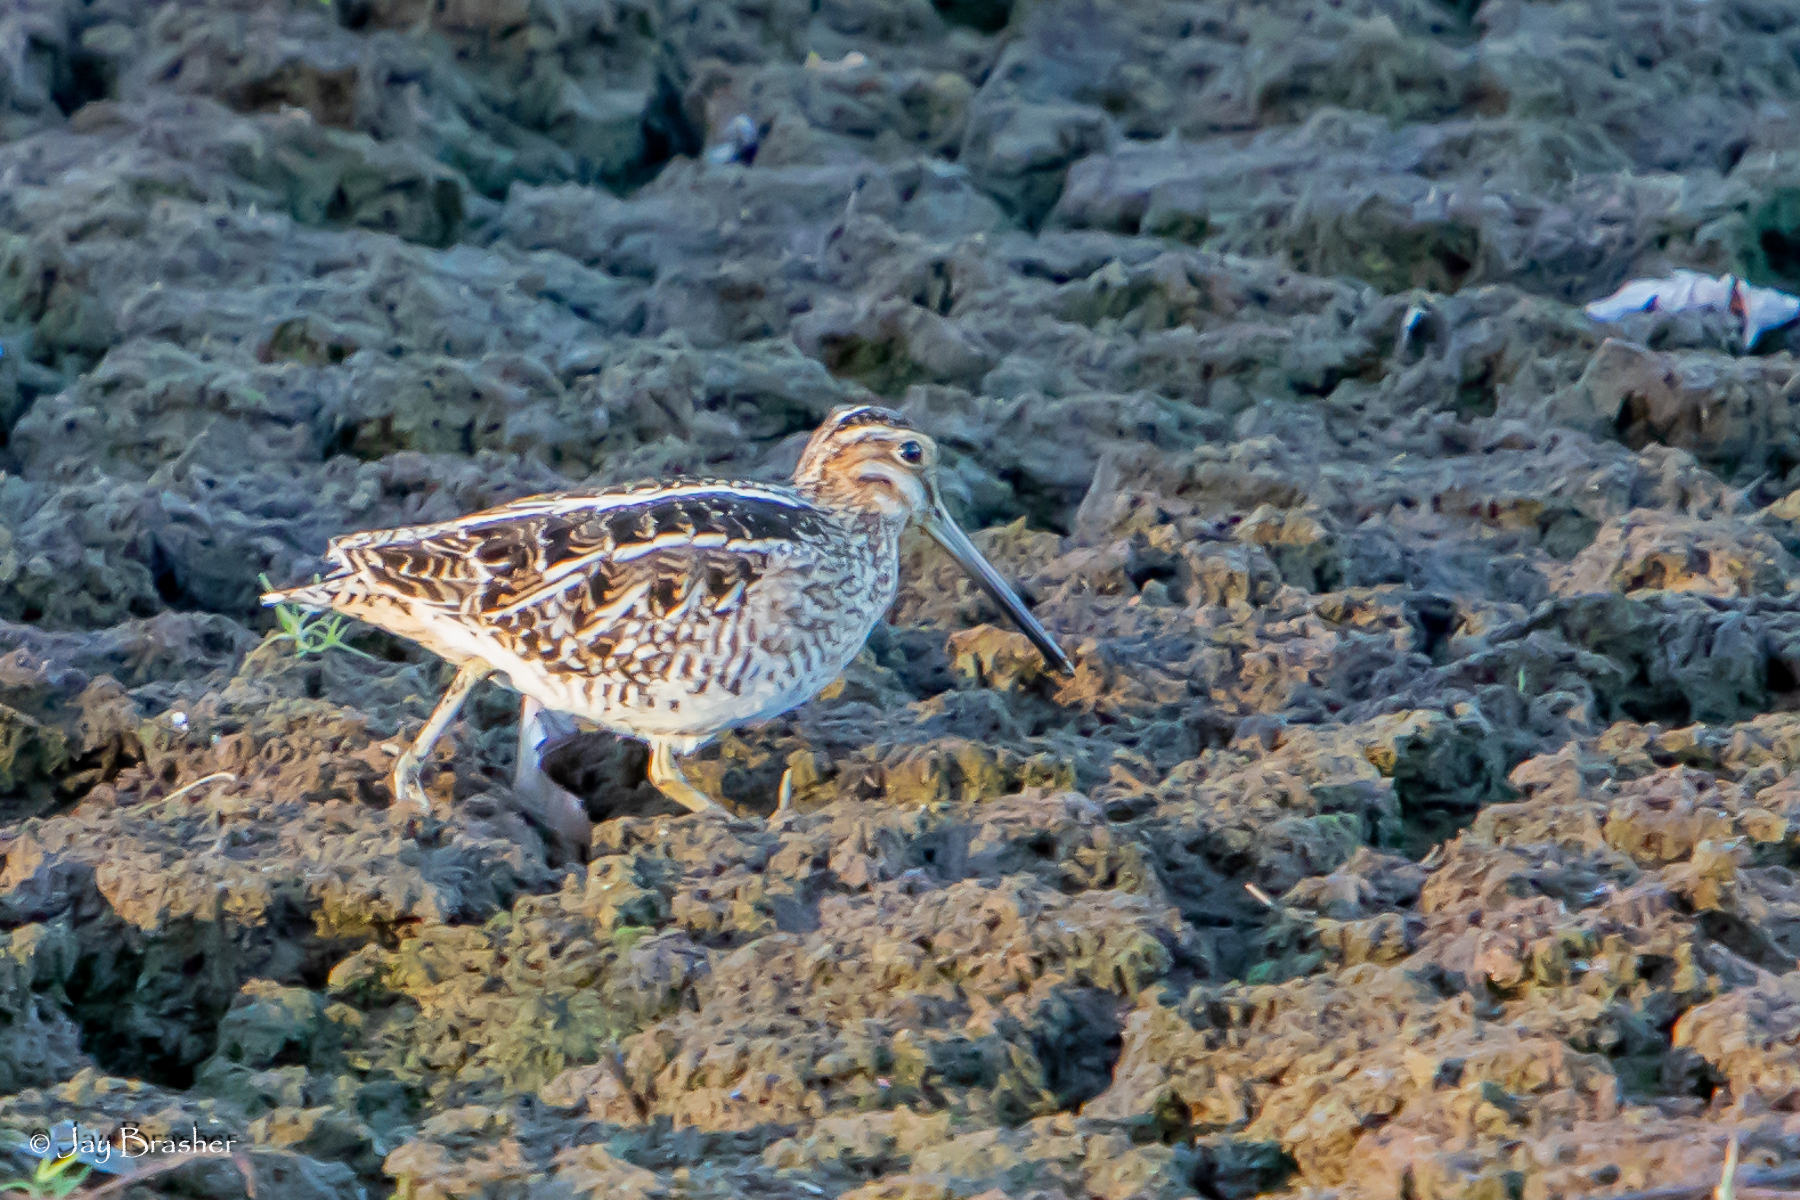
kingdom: Animalia
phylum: Chordata
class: Aves
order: Charadriiformes
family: Scolopacidae
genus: Gallinago
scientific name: Gallinago delicata
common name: Wilson's snipe
